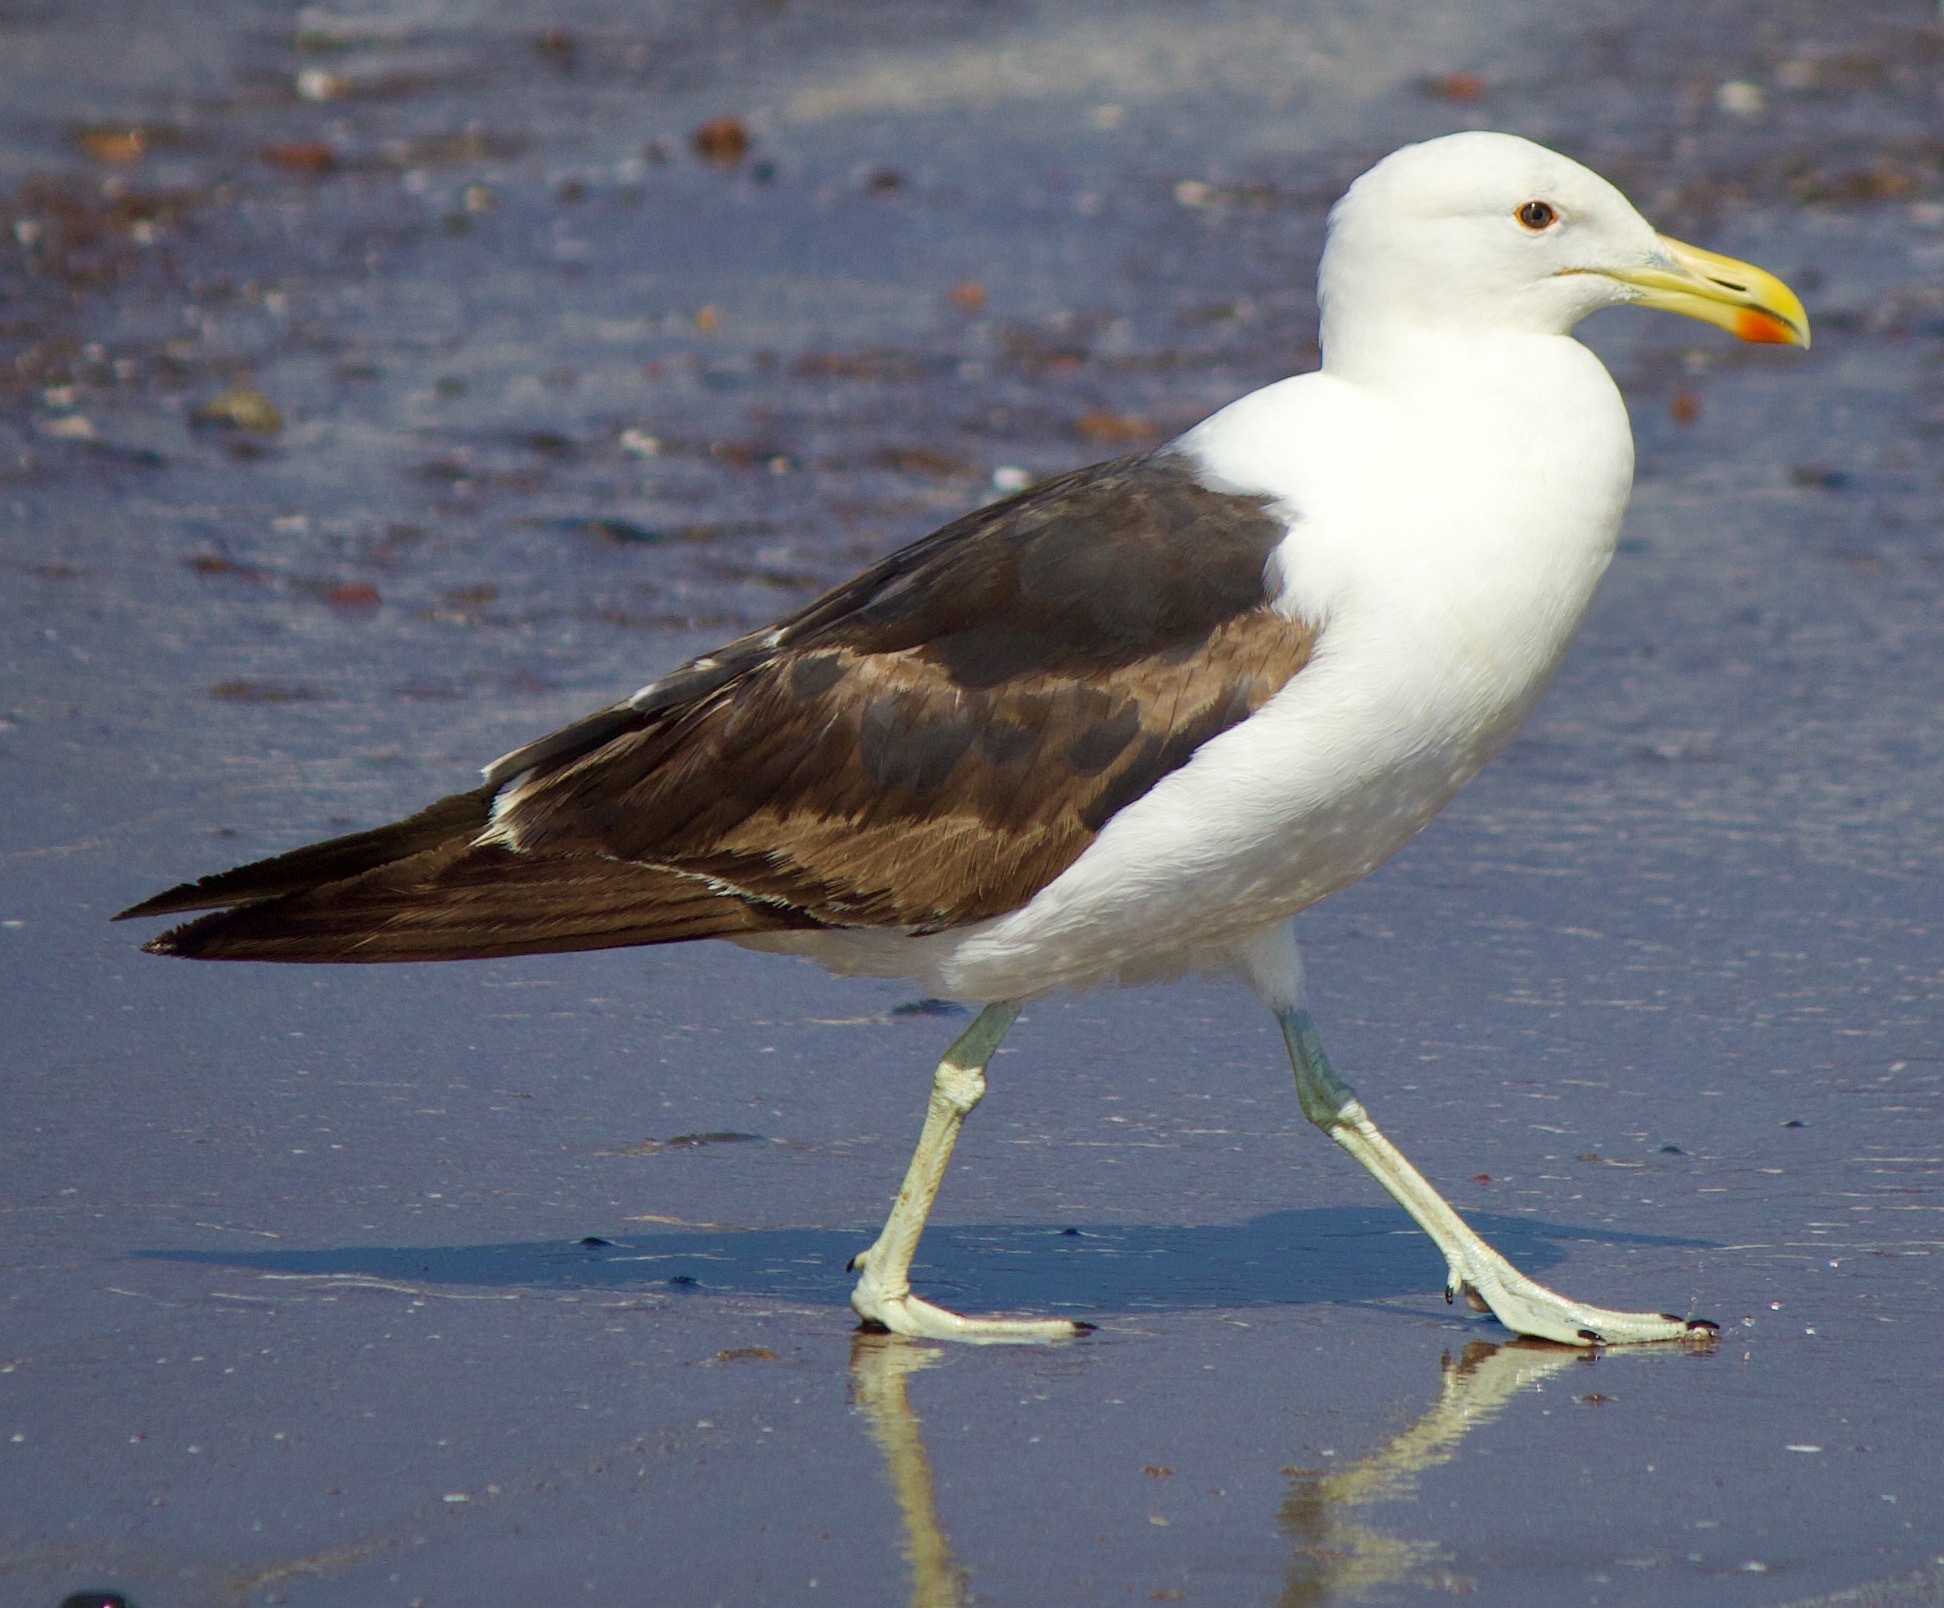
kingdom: Animalia
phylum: Chordata
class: Aves
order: Charadriiformes
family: Laridae
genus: Larus
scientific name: Larus dominicanus
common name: Kelp gull
